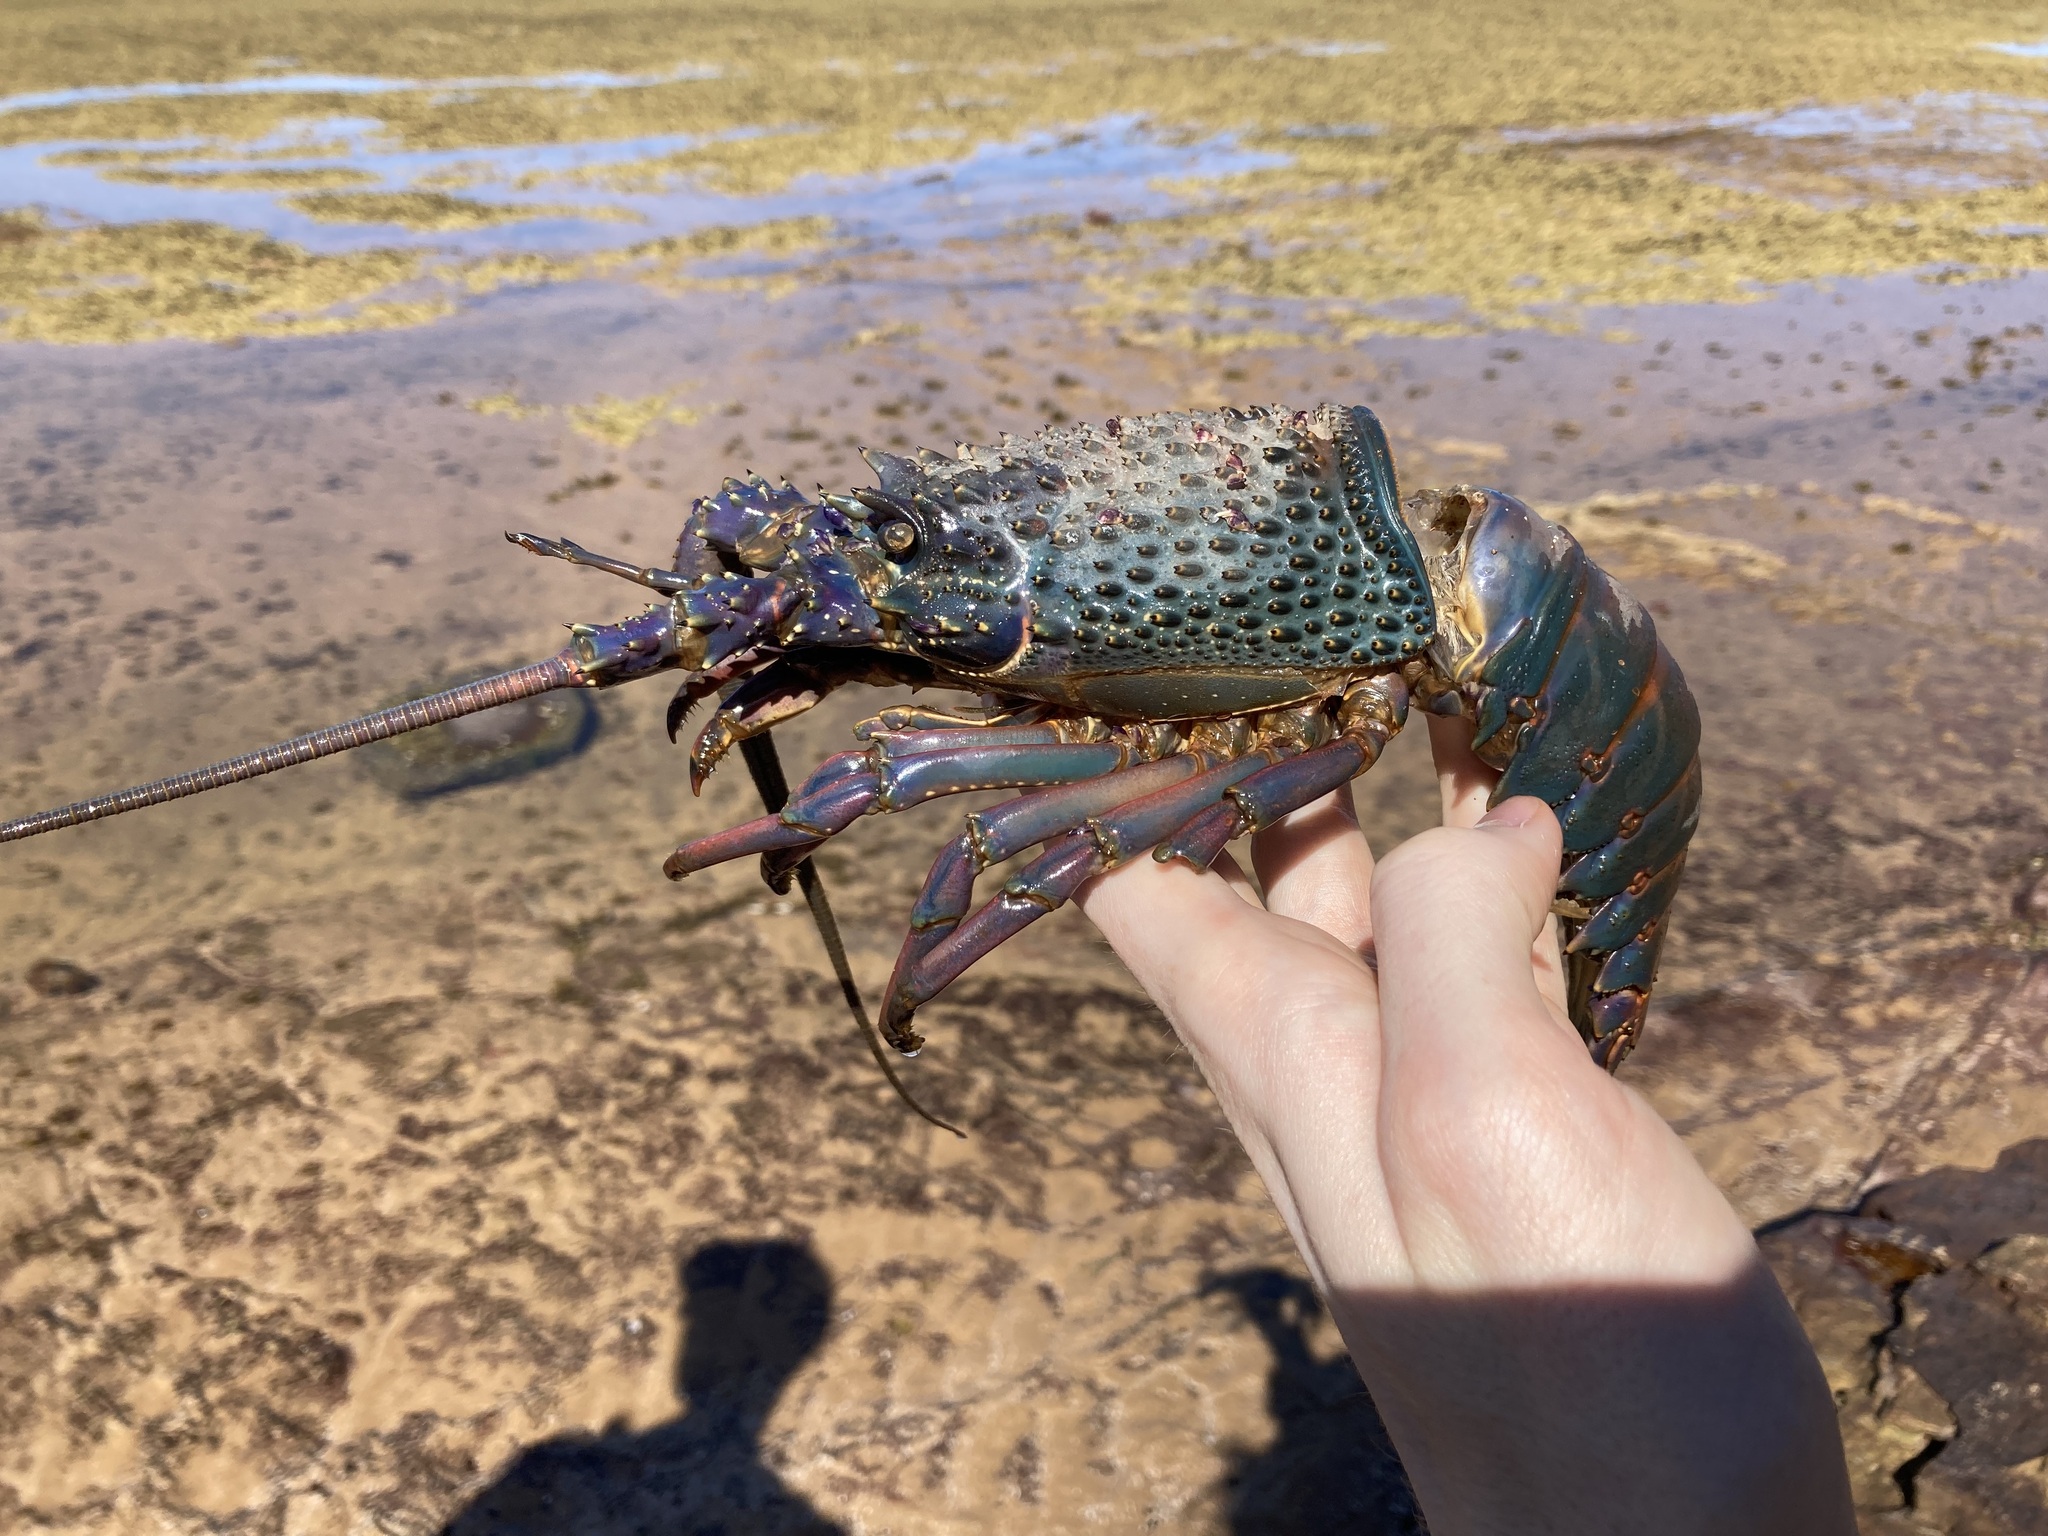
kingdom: Animalia
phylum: Arthropoda
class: Malacostraca
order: Decapoda
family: Palinuridae
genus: Sagmariasus
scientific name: Sagmariasus verreauxi
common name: Green rock lobster
